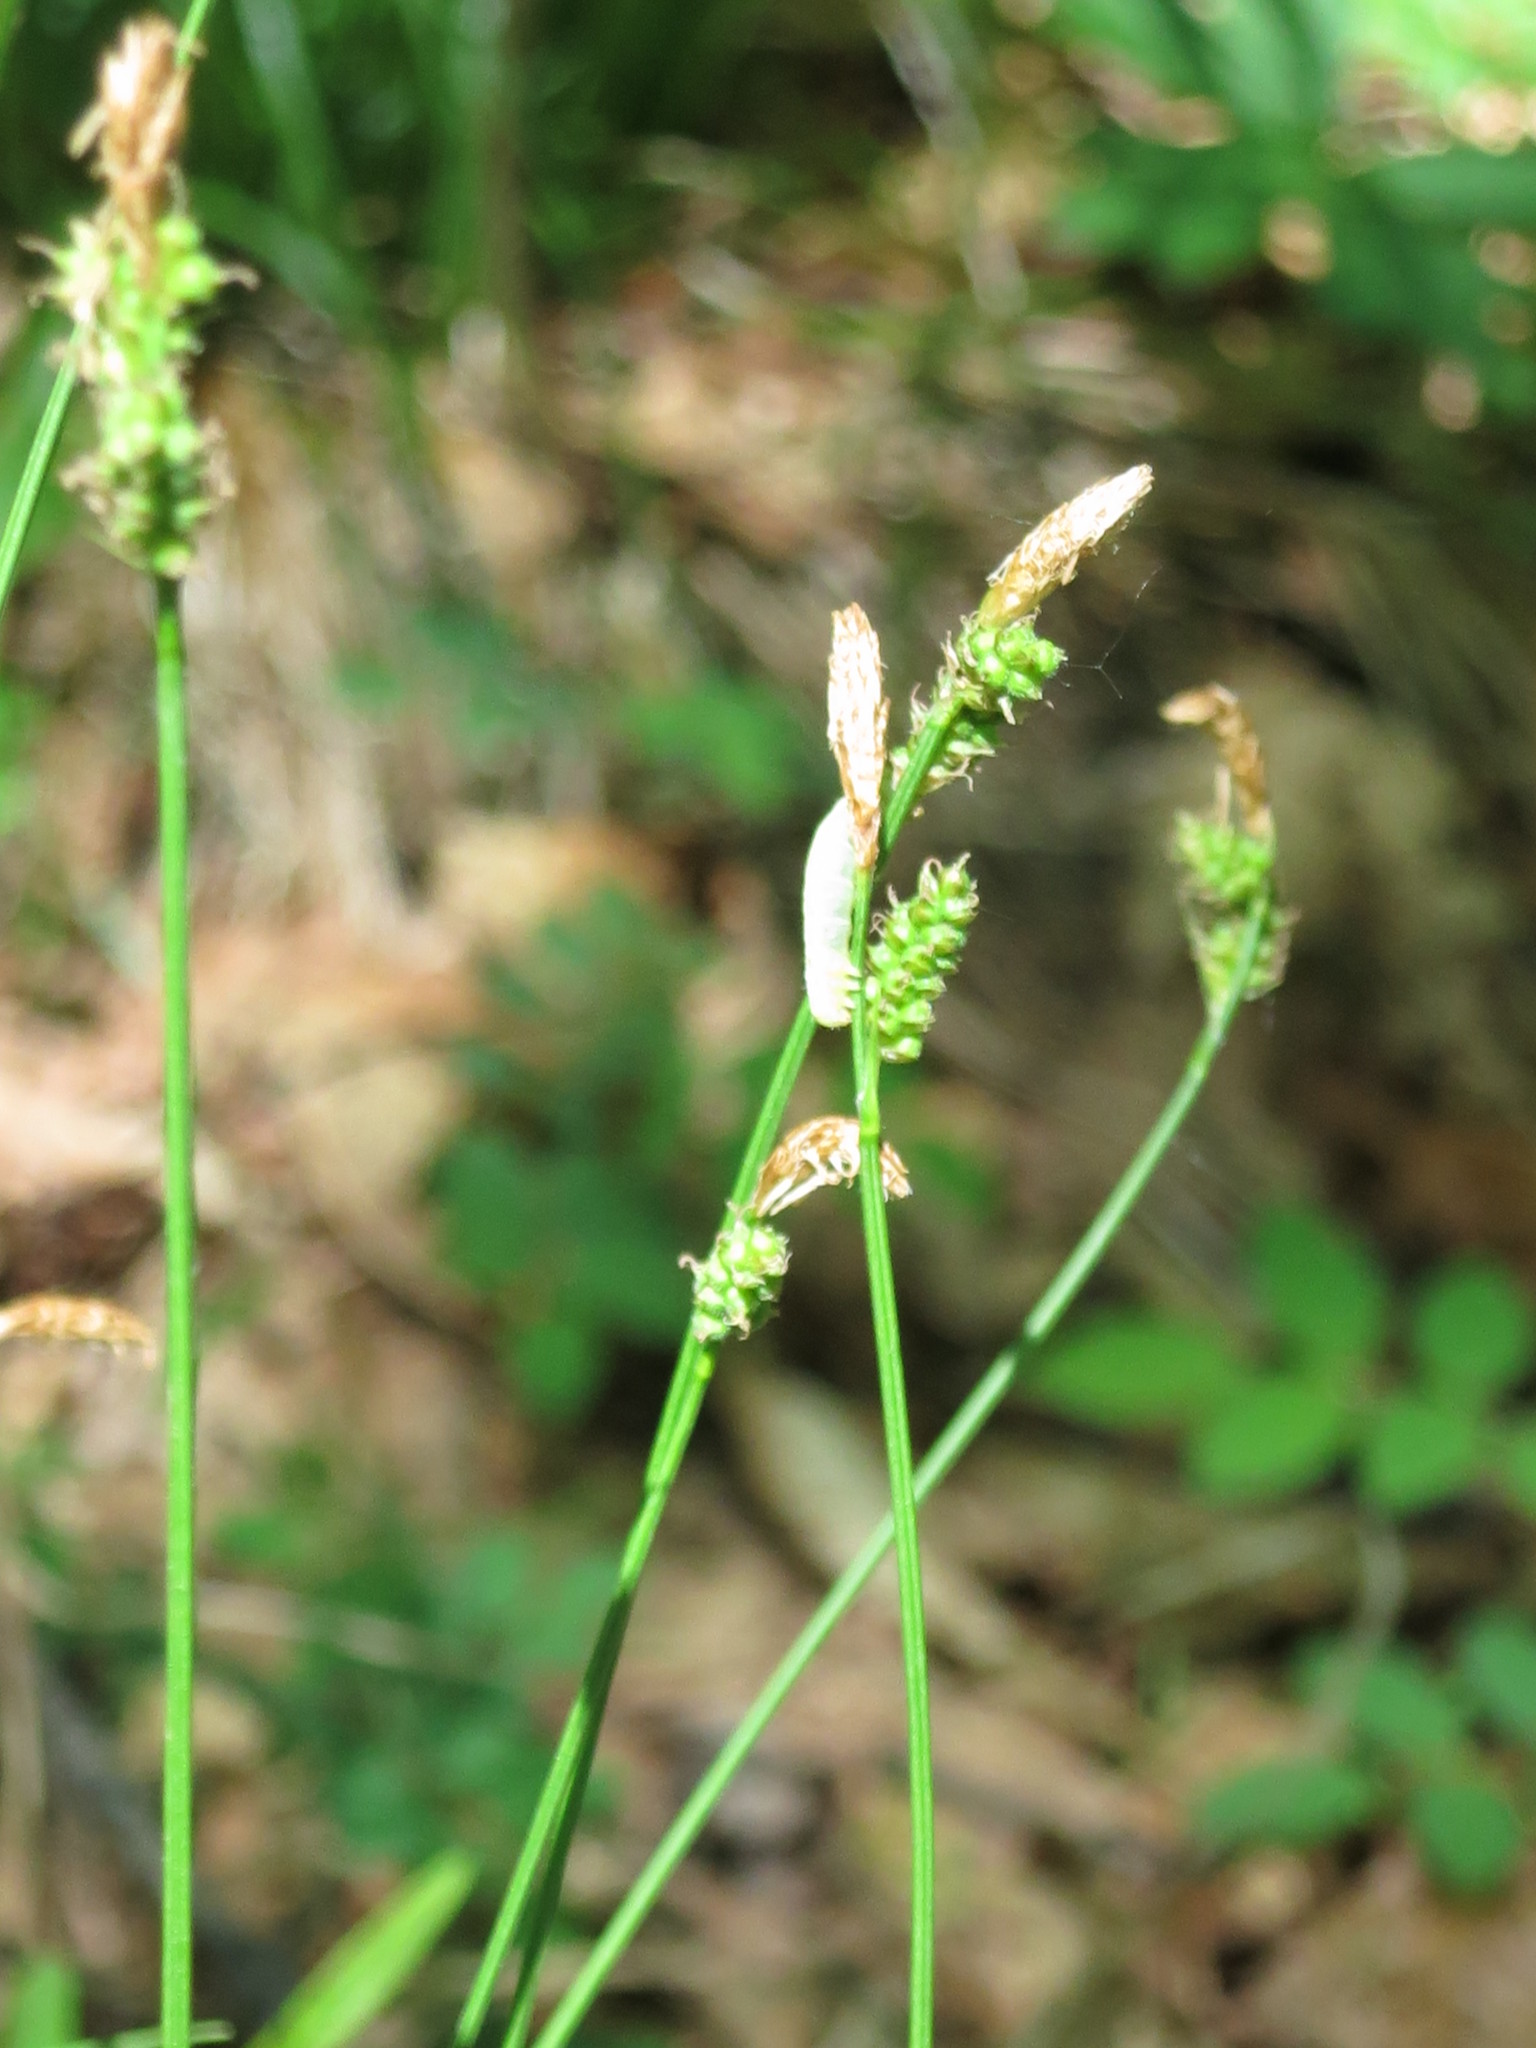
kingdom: Plantae
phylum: Tracheophyta
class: Liliopsida
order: Poales
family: Cyperaceae
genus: Carex
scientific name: Carex umbrosa
